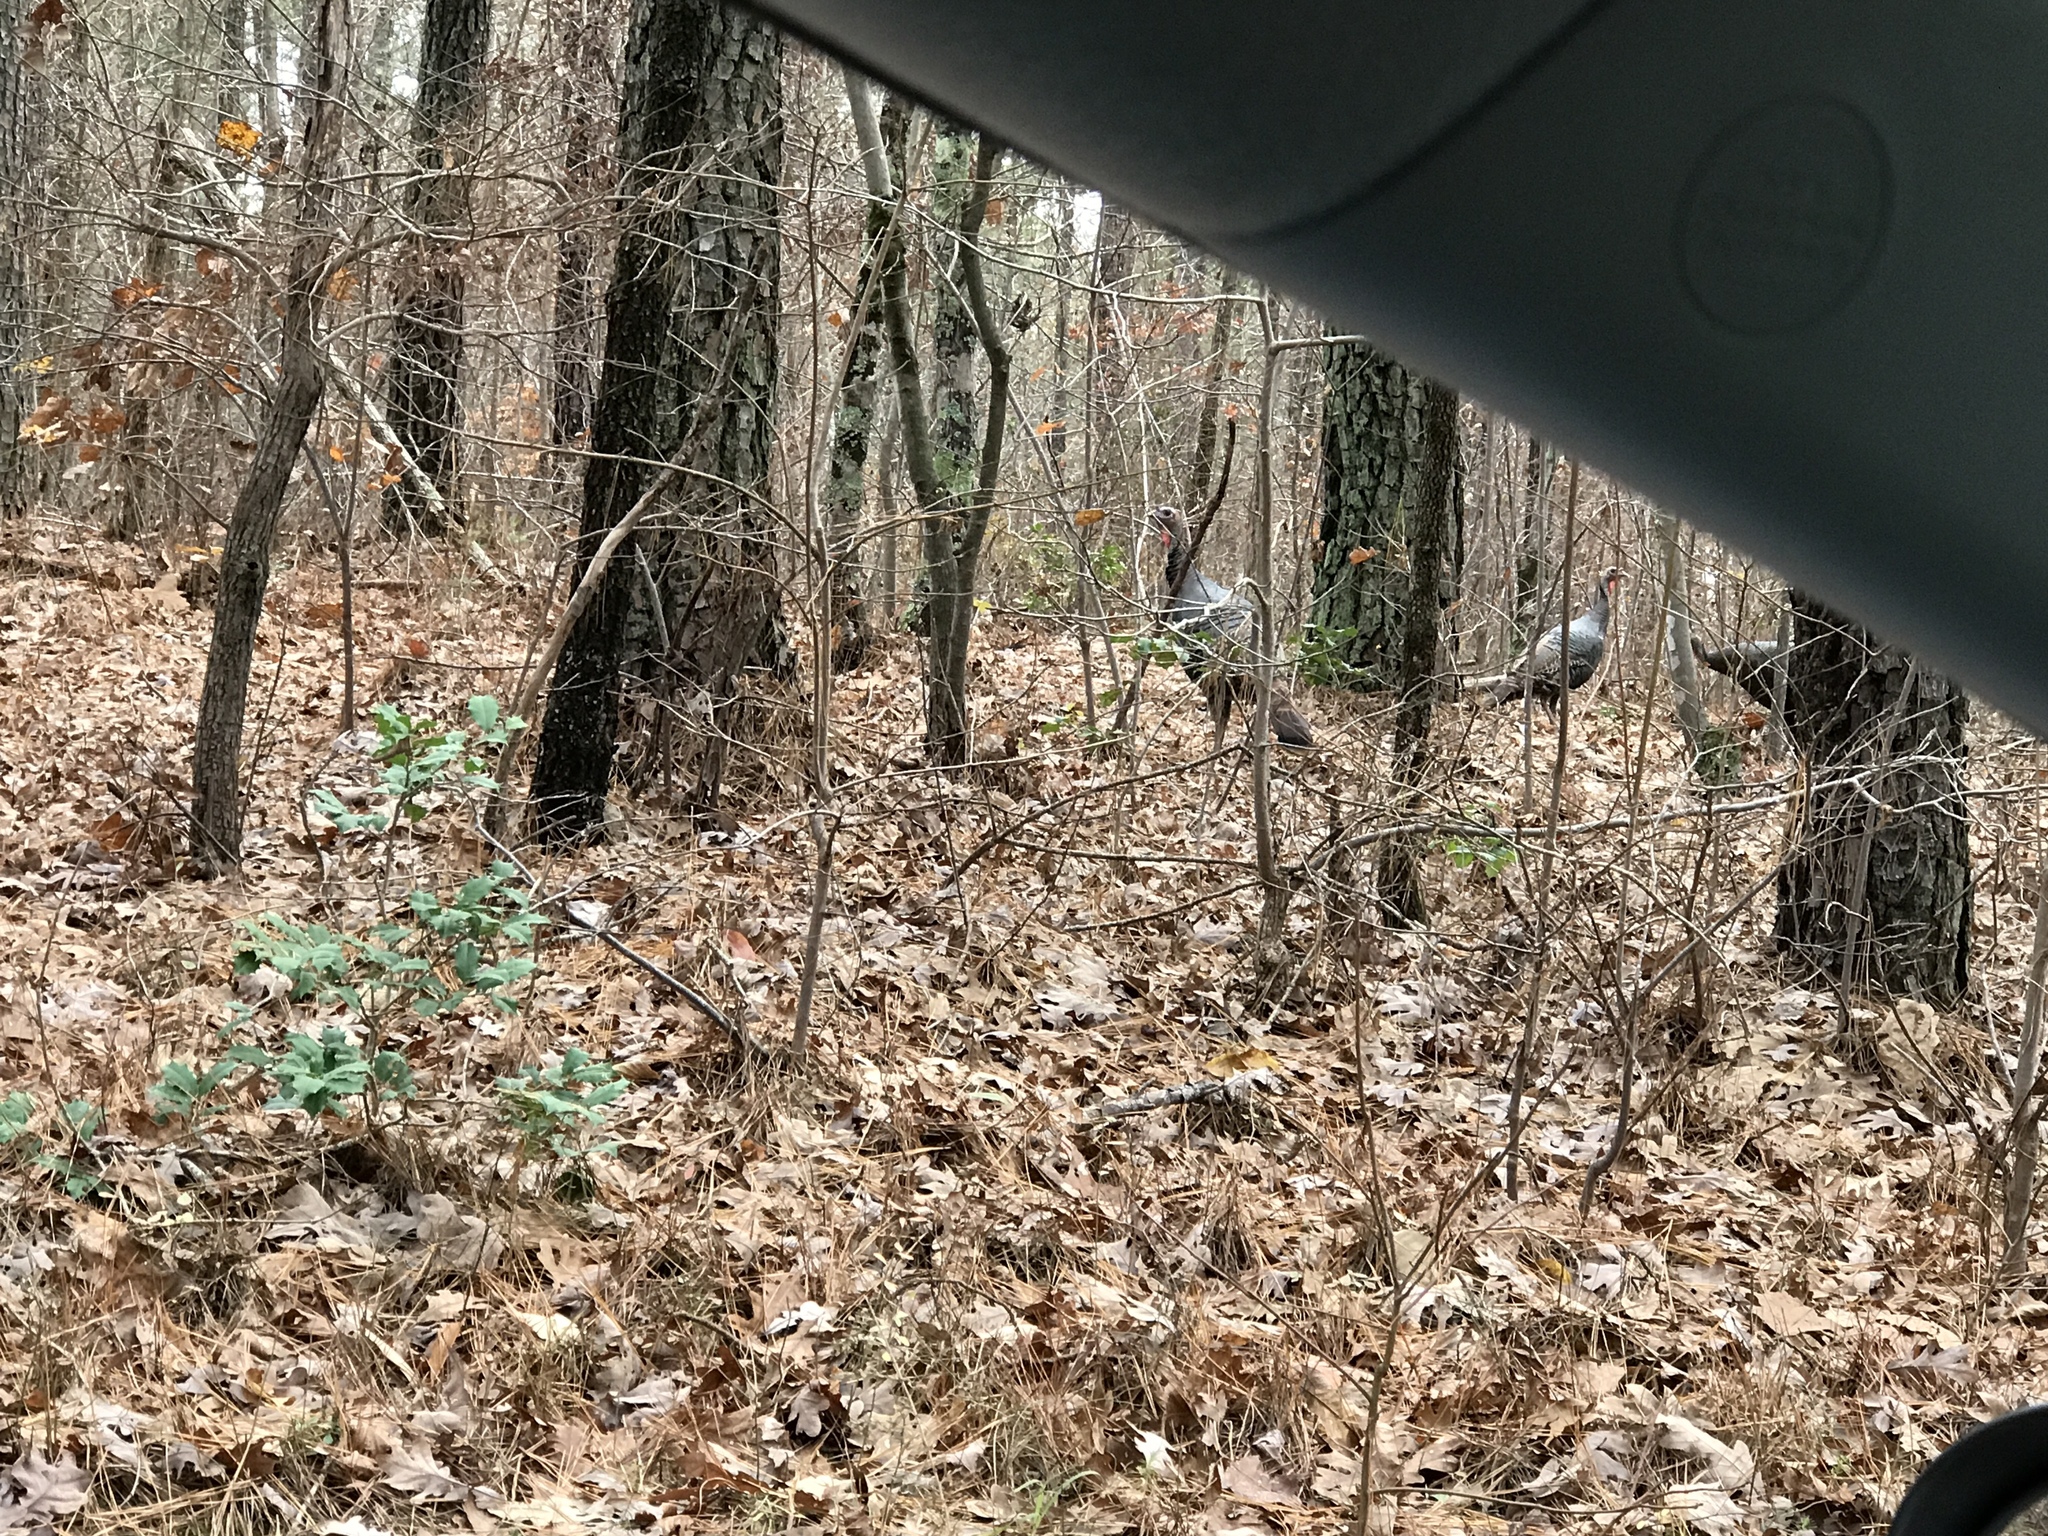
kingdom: Animalia
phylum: Chordata
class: Aves
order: Galliformes
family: Phasianidae
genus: Meleagris
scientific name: Meleagris gallopavo
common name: Wild turkey
